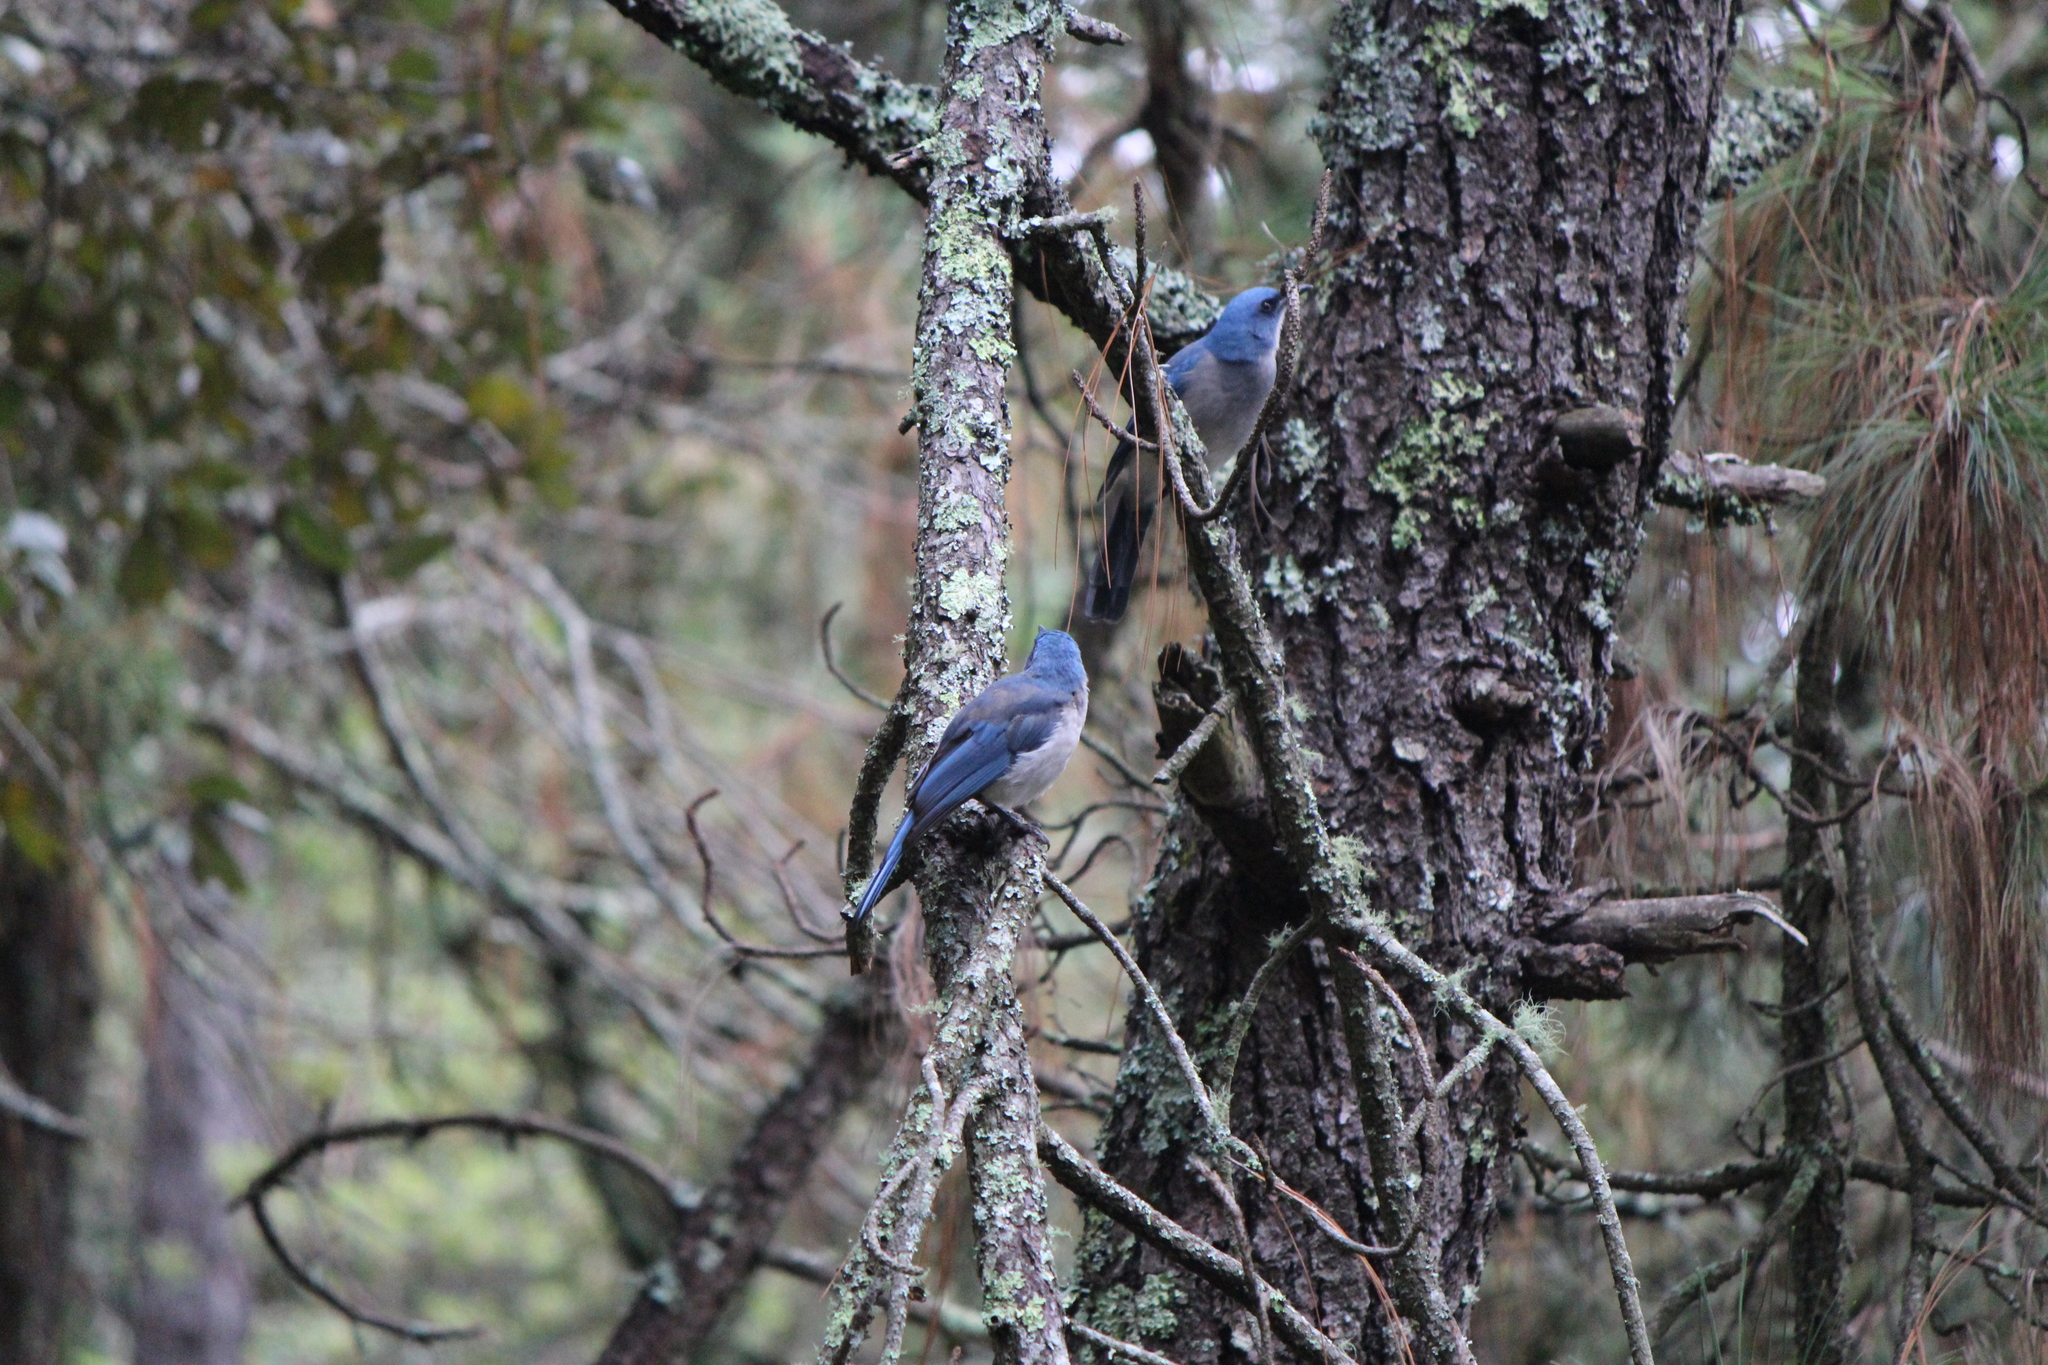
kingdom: Animalia
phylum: Chordata
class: Aves
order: Passeriformes
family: Corvidae
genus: Aphelocoma
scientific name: Aphelocoma wollweberi
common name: Mexican jay
